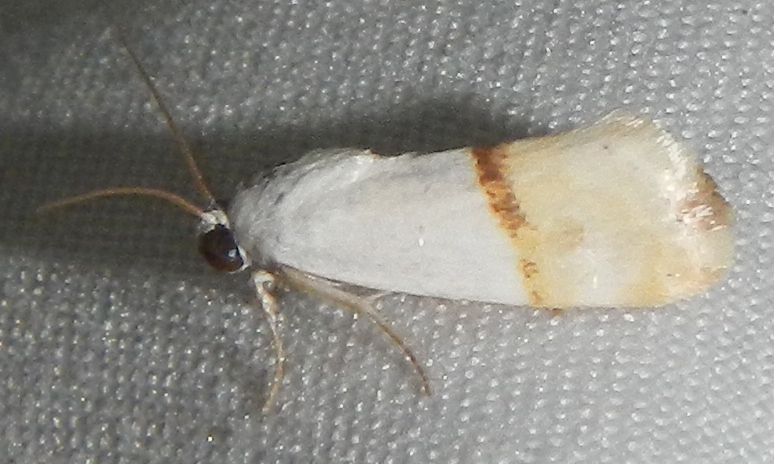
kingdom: Animalia
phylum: Arthropoda
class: Insecta
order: Lepidoptera
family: Noctuidae
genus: Ponometia
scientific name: Ponometia elegantula
